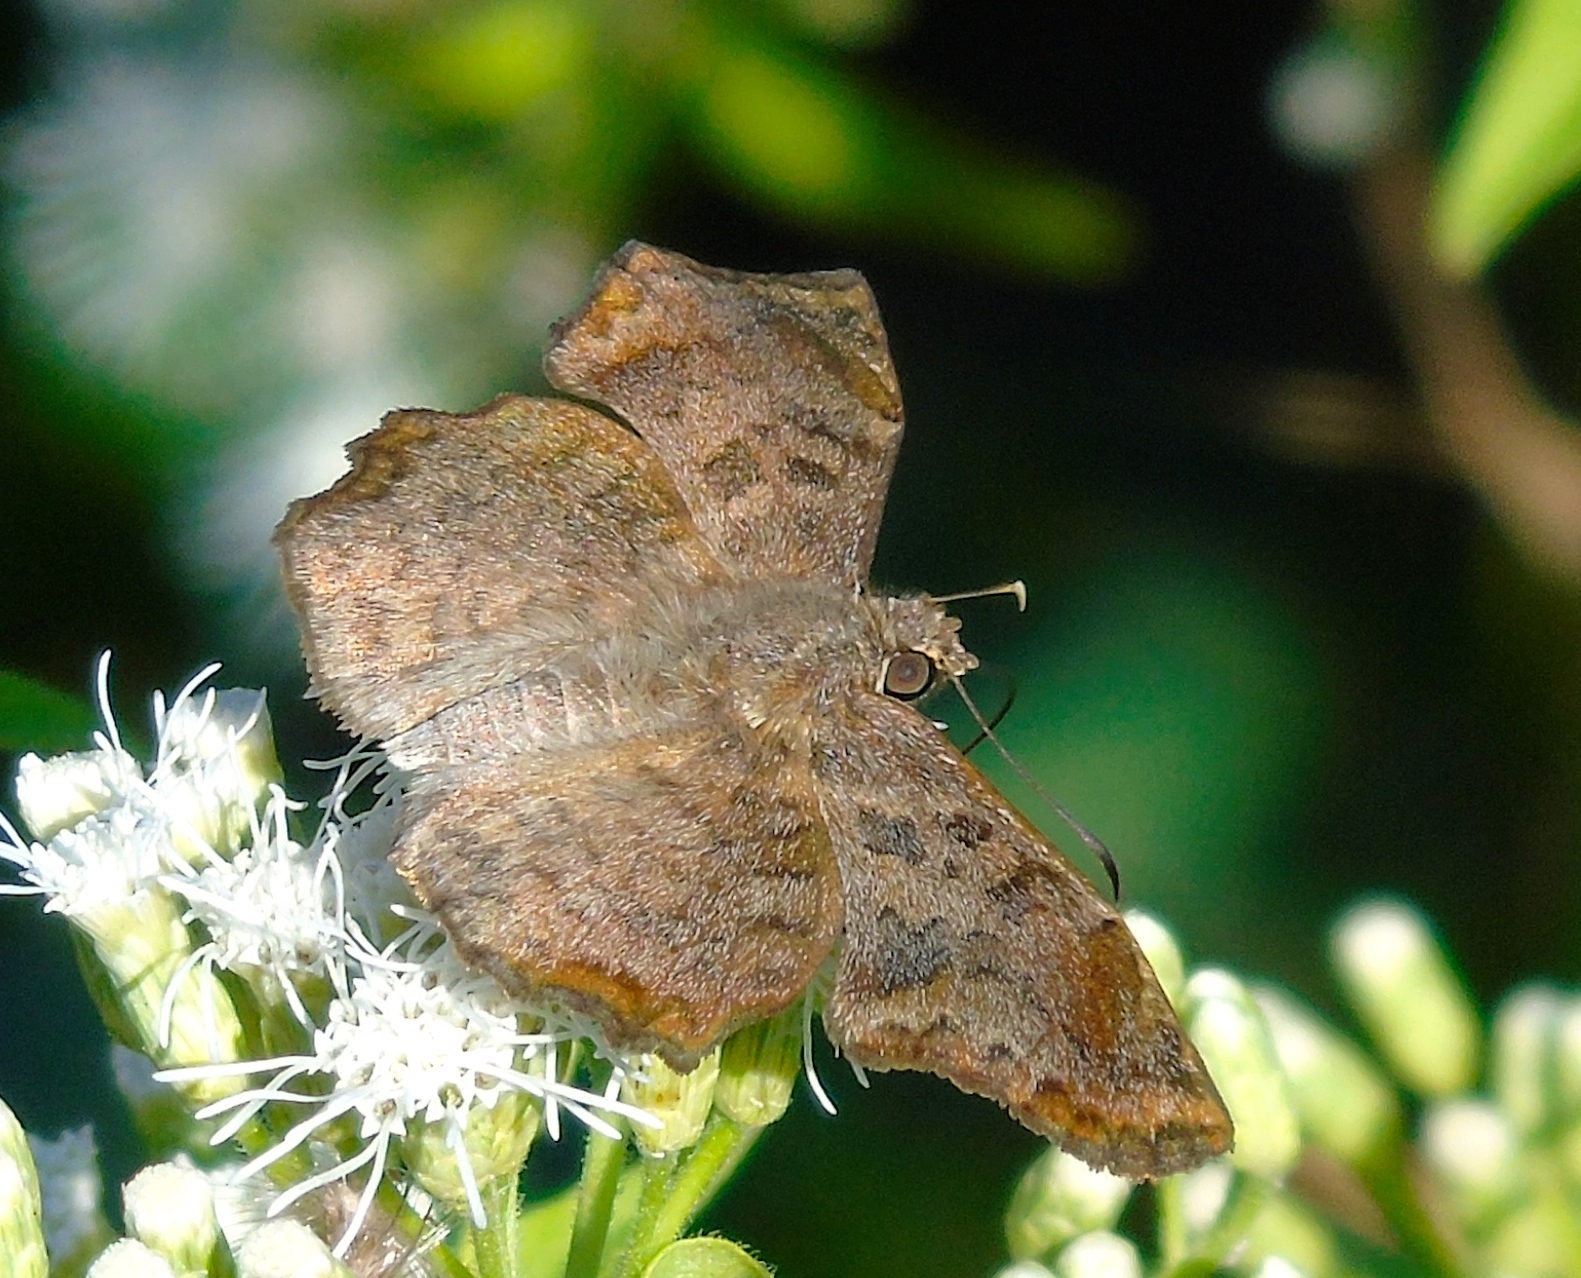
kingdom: Animalia
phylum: Arthropoda
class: Insecta
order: Lepidoptera
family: Hesperiidae
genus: Antigonus
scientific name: Antigonus erosus
